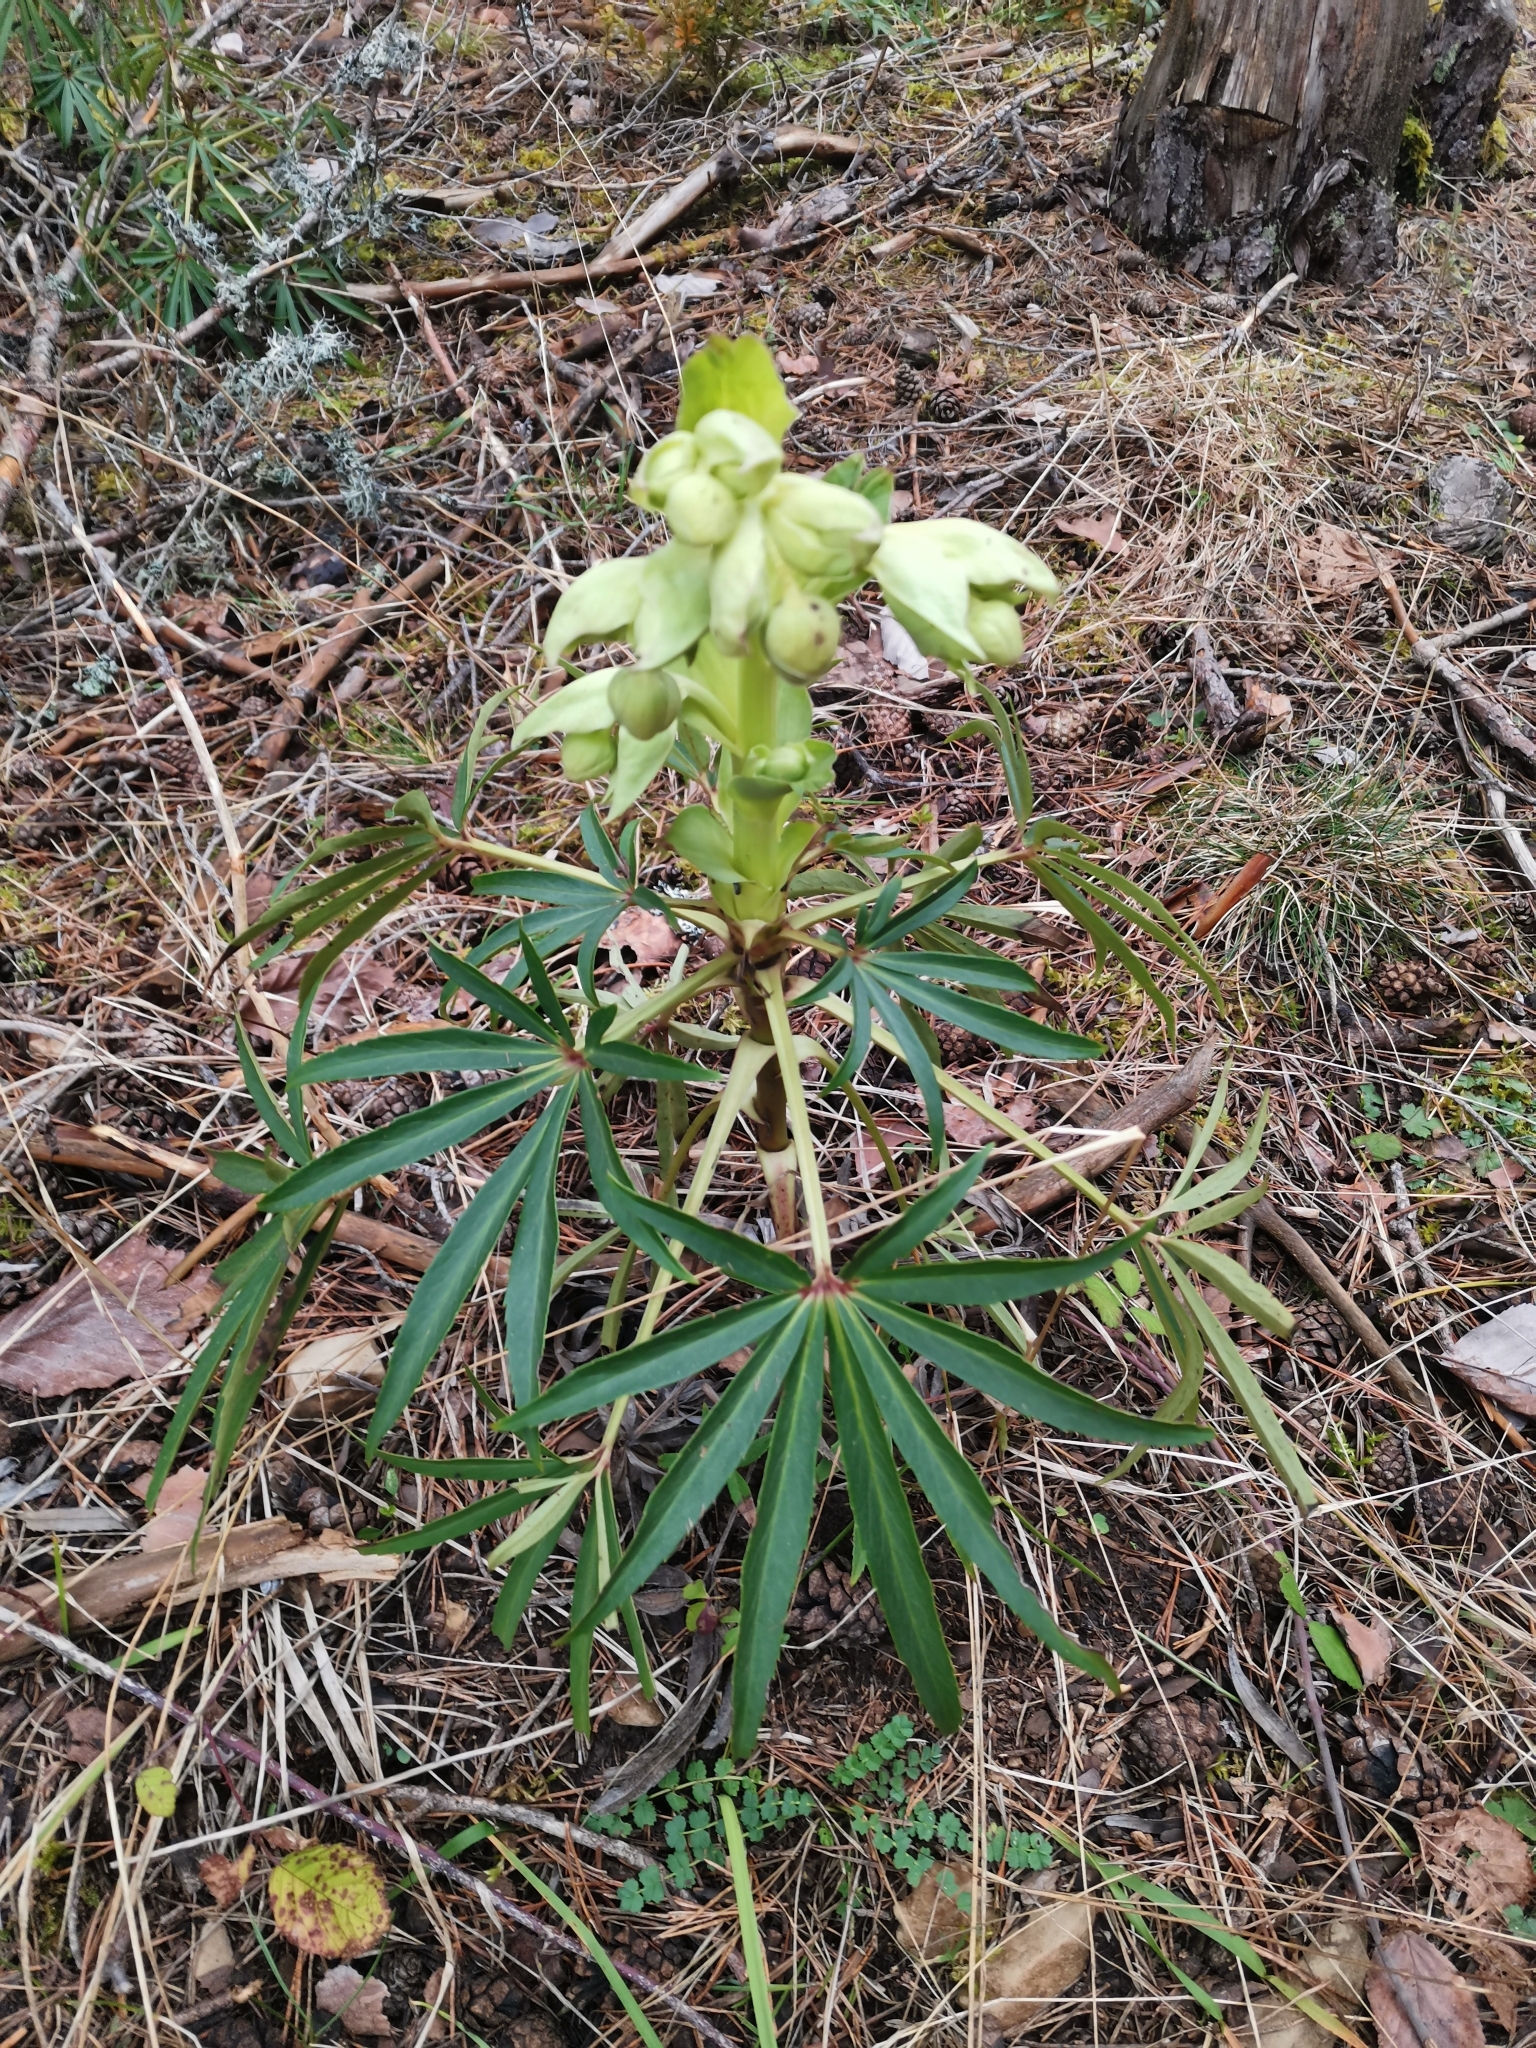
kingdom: Plantae
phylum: Tracheophyta
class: Magnoliopsida
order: Ranunculales
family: Ranunculaceae
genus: Helleborus
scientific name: Helleborus foetidus
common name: Stinking hellebore
